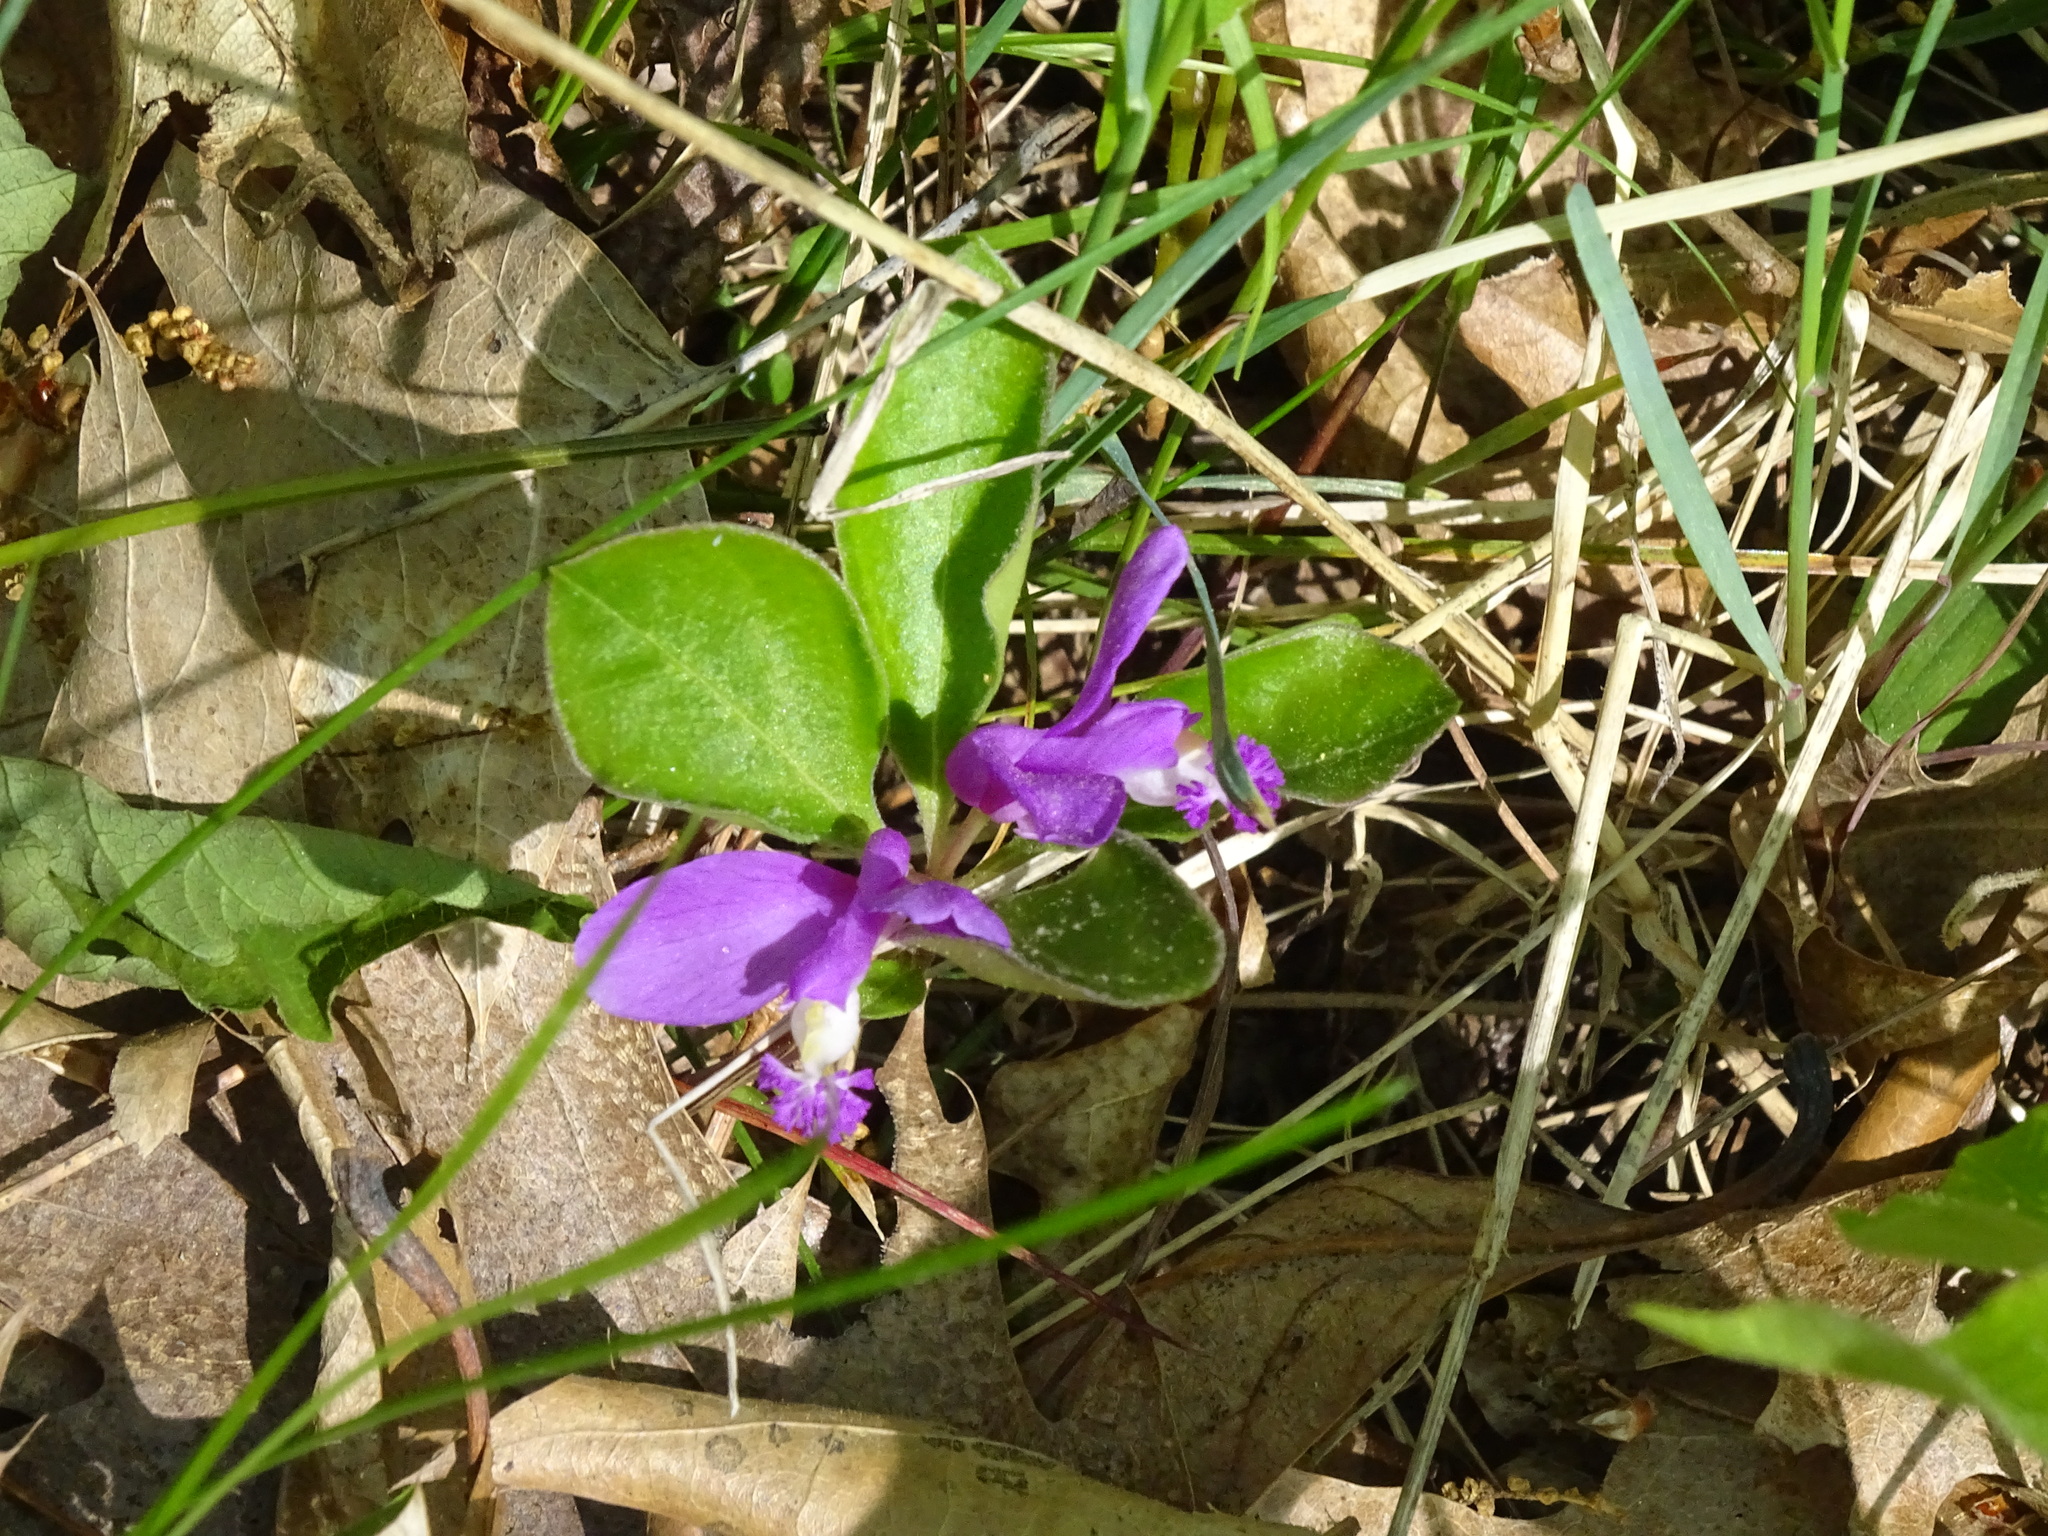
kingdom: Plantae
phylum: Tracheophyta
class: Magnoliopsida
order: Fabales
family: Polygalaceae
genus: Polygaloides
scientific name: Polygaloides paucifolia
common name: Bird-on-the-wing
